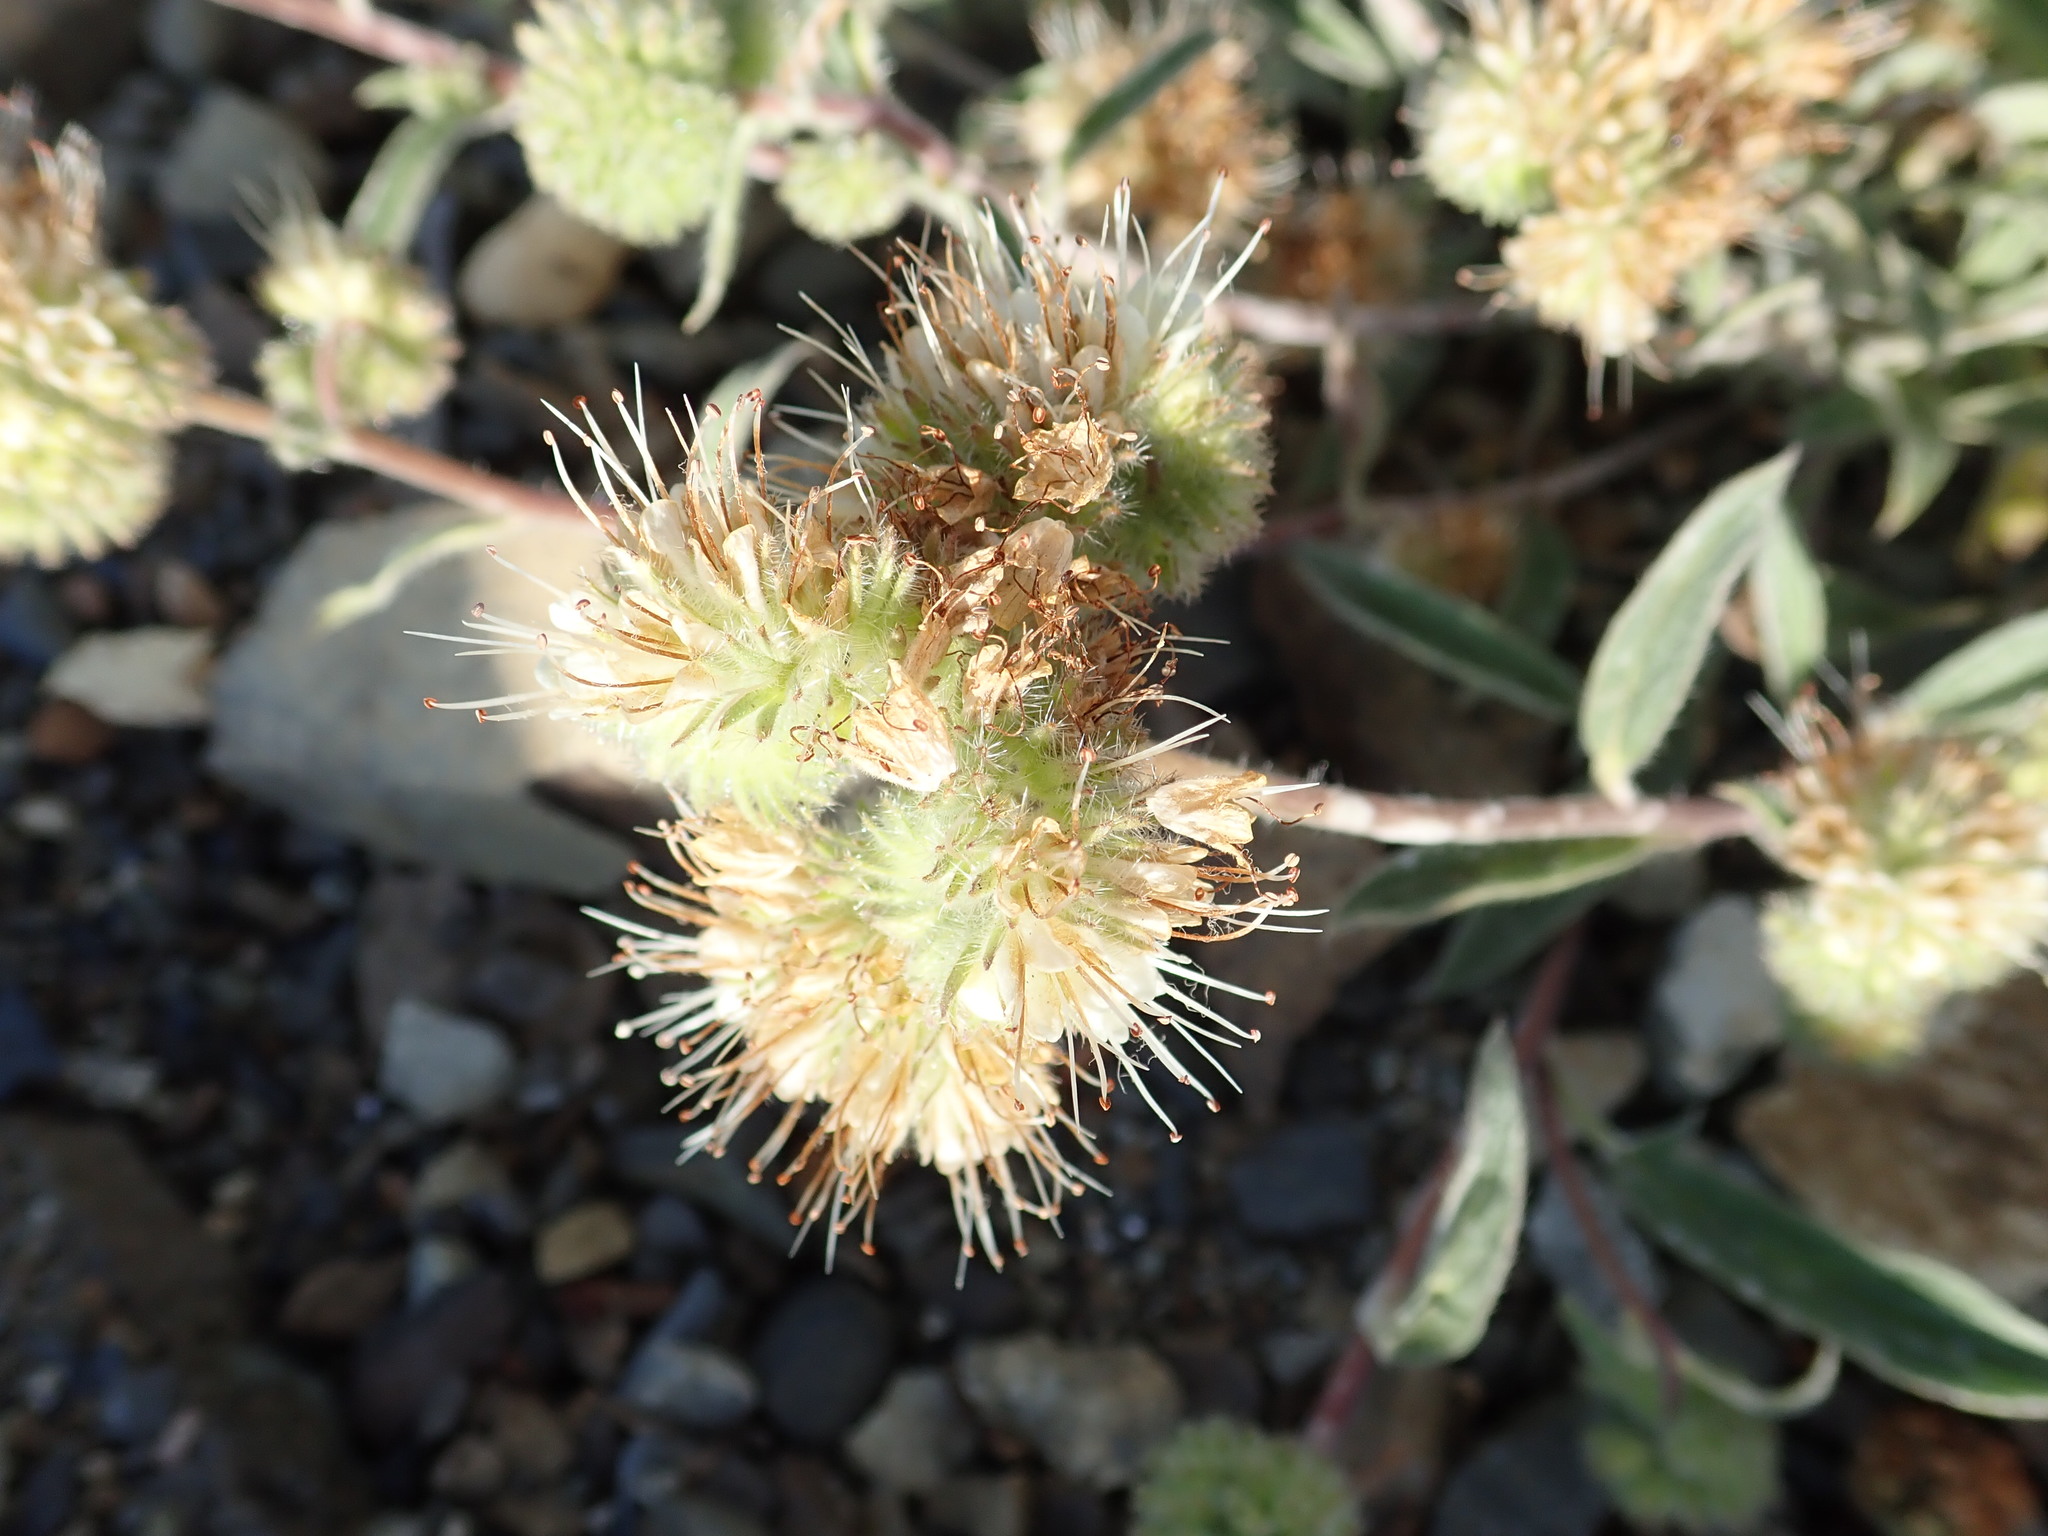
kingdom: Plantae
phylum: Tracheophyta
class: Magnoliopsida
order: Boraginales
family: Hydrophyllaceae
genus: Phacelia
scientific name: Phacelia hastata
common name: Silver-leaved phacelia
